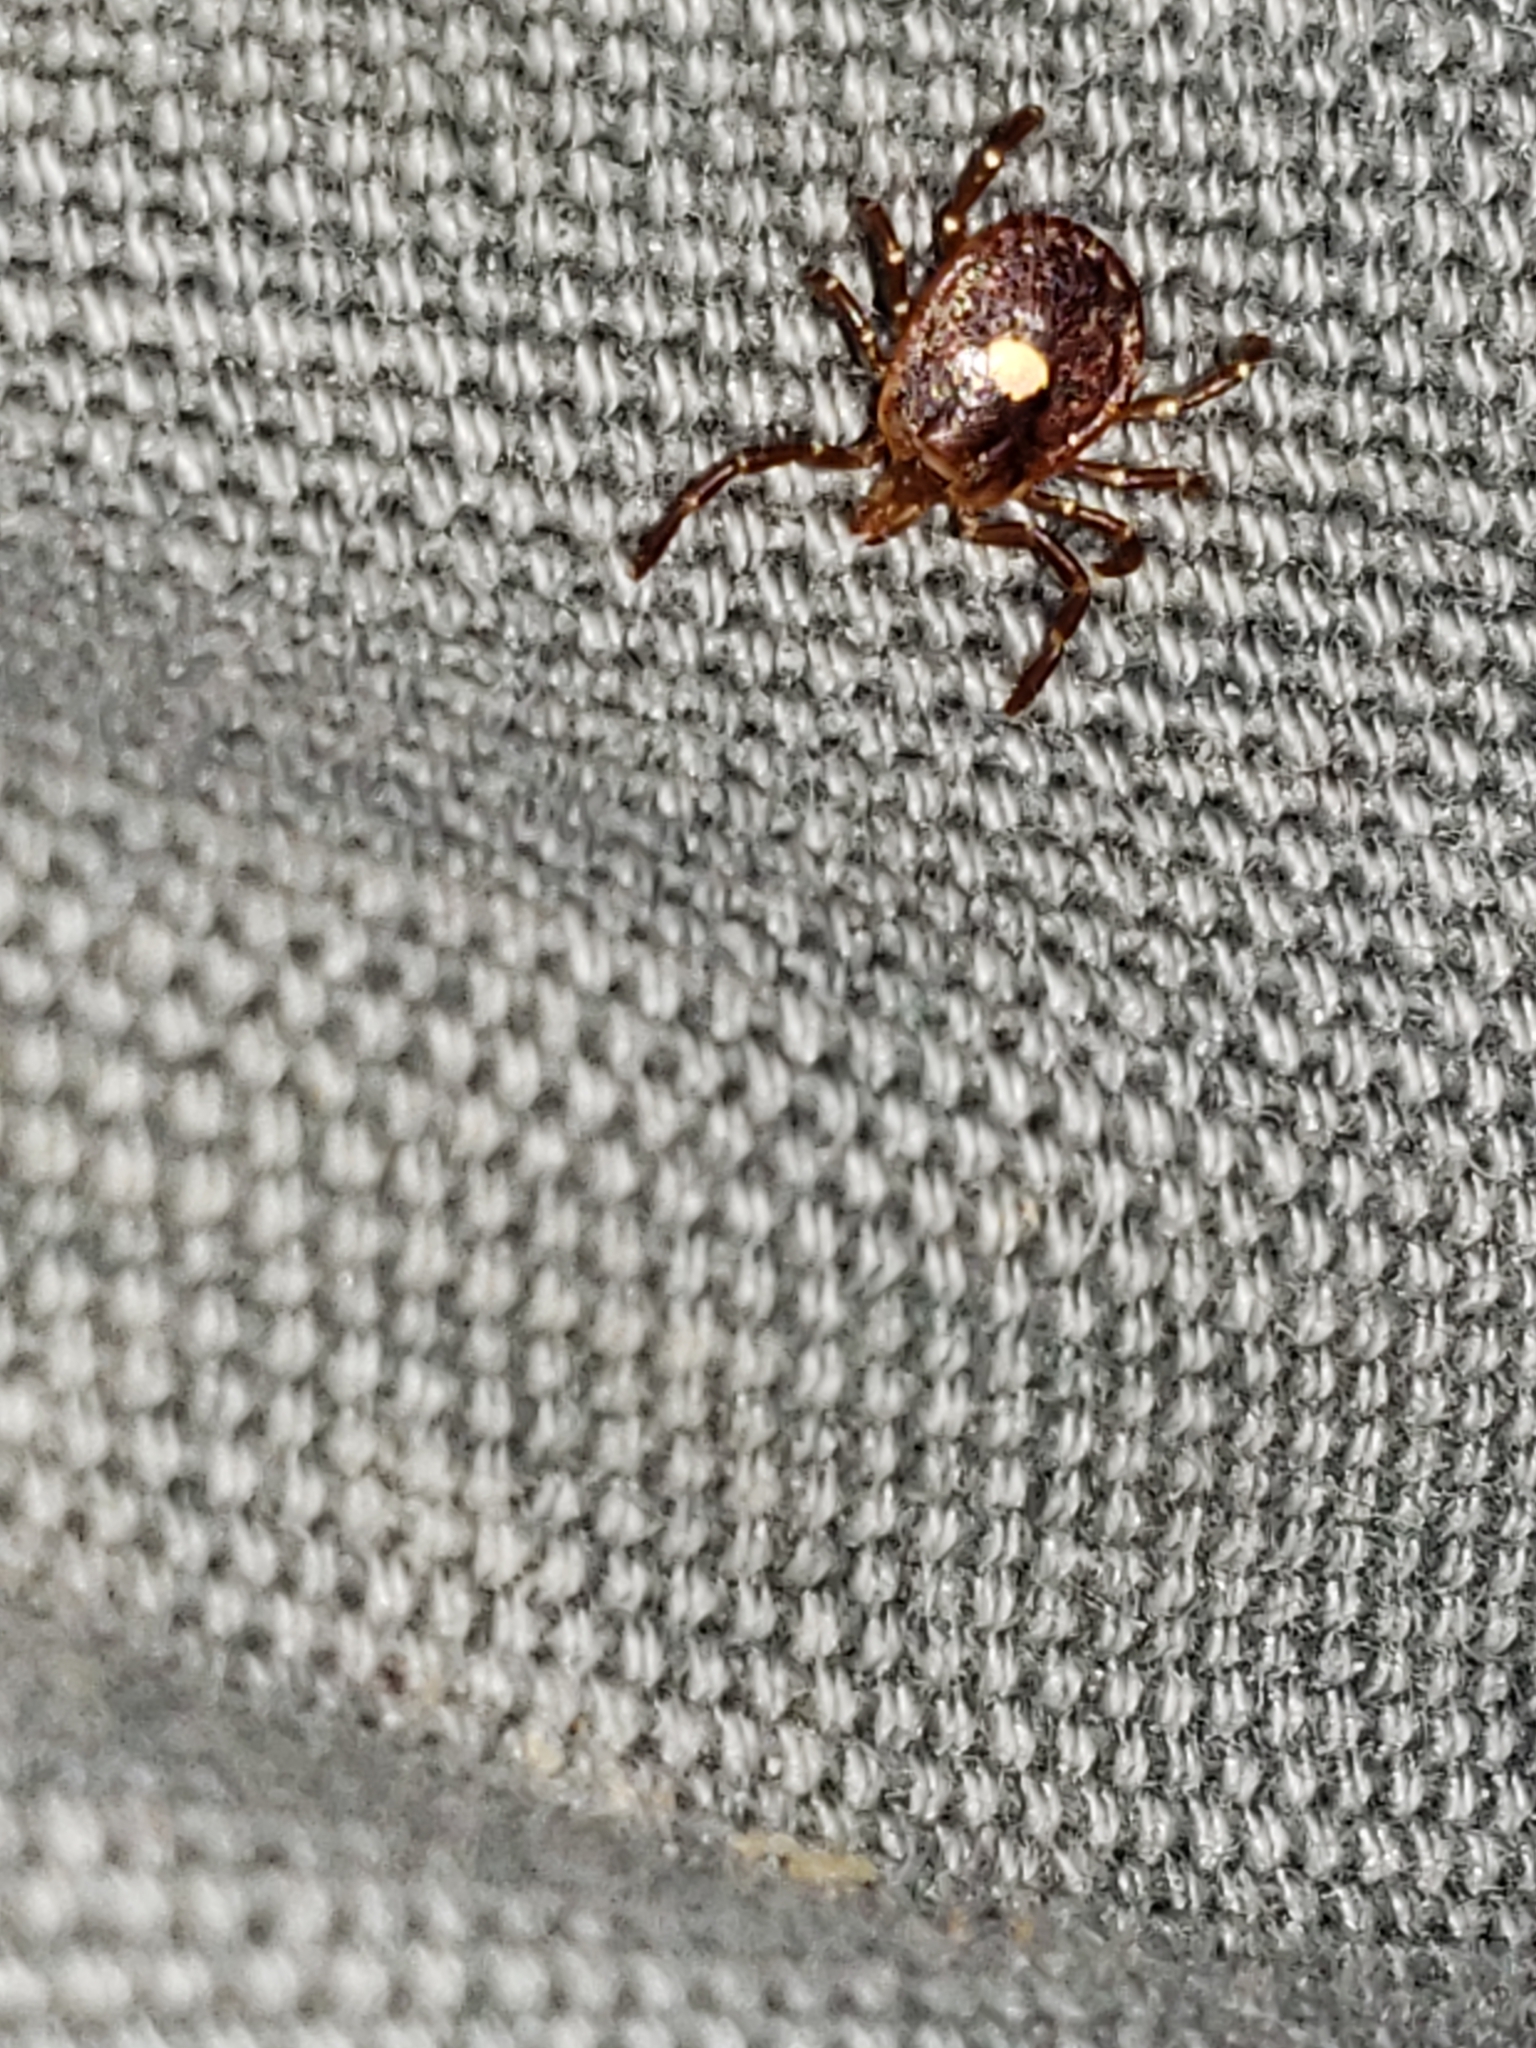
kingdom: Animalia
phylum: Arthropoda
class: Arachnida
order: Ixodida
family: Ixodidae
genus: Amblyomma
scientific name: Amblyomma americanum
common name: Lone star tick
